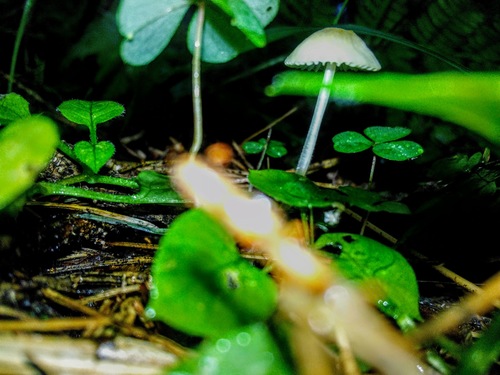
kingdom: Fungi
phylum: Basidiomycota
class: Agaricomycetes
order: Agaricales
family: Mycenaceae
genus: Mycena
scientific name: Mycena galericulata
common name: Bonnet mycena
